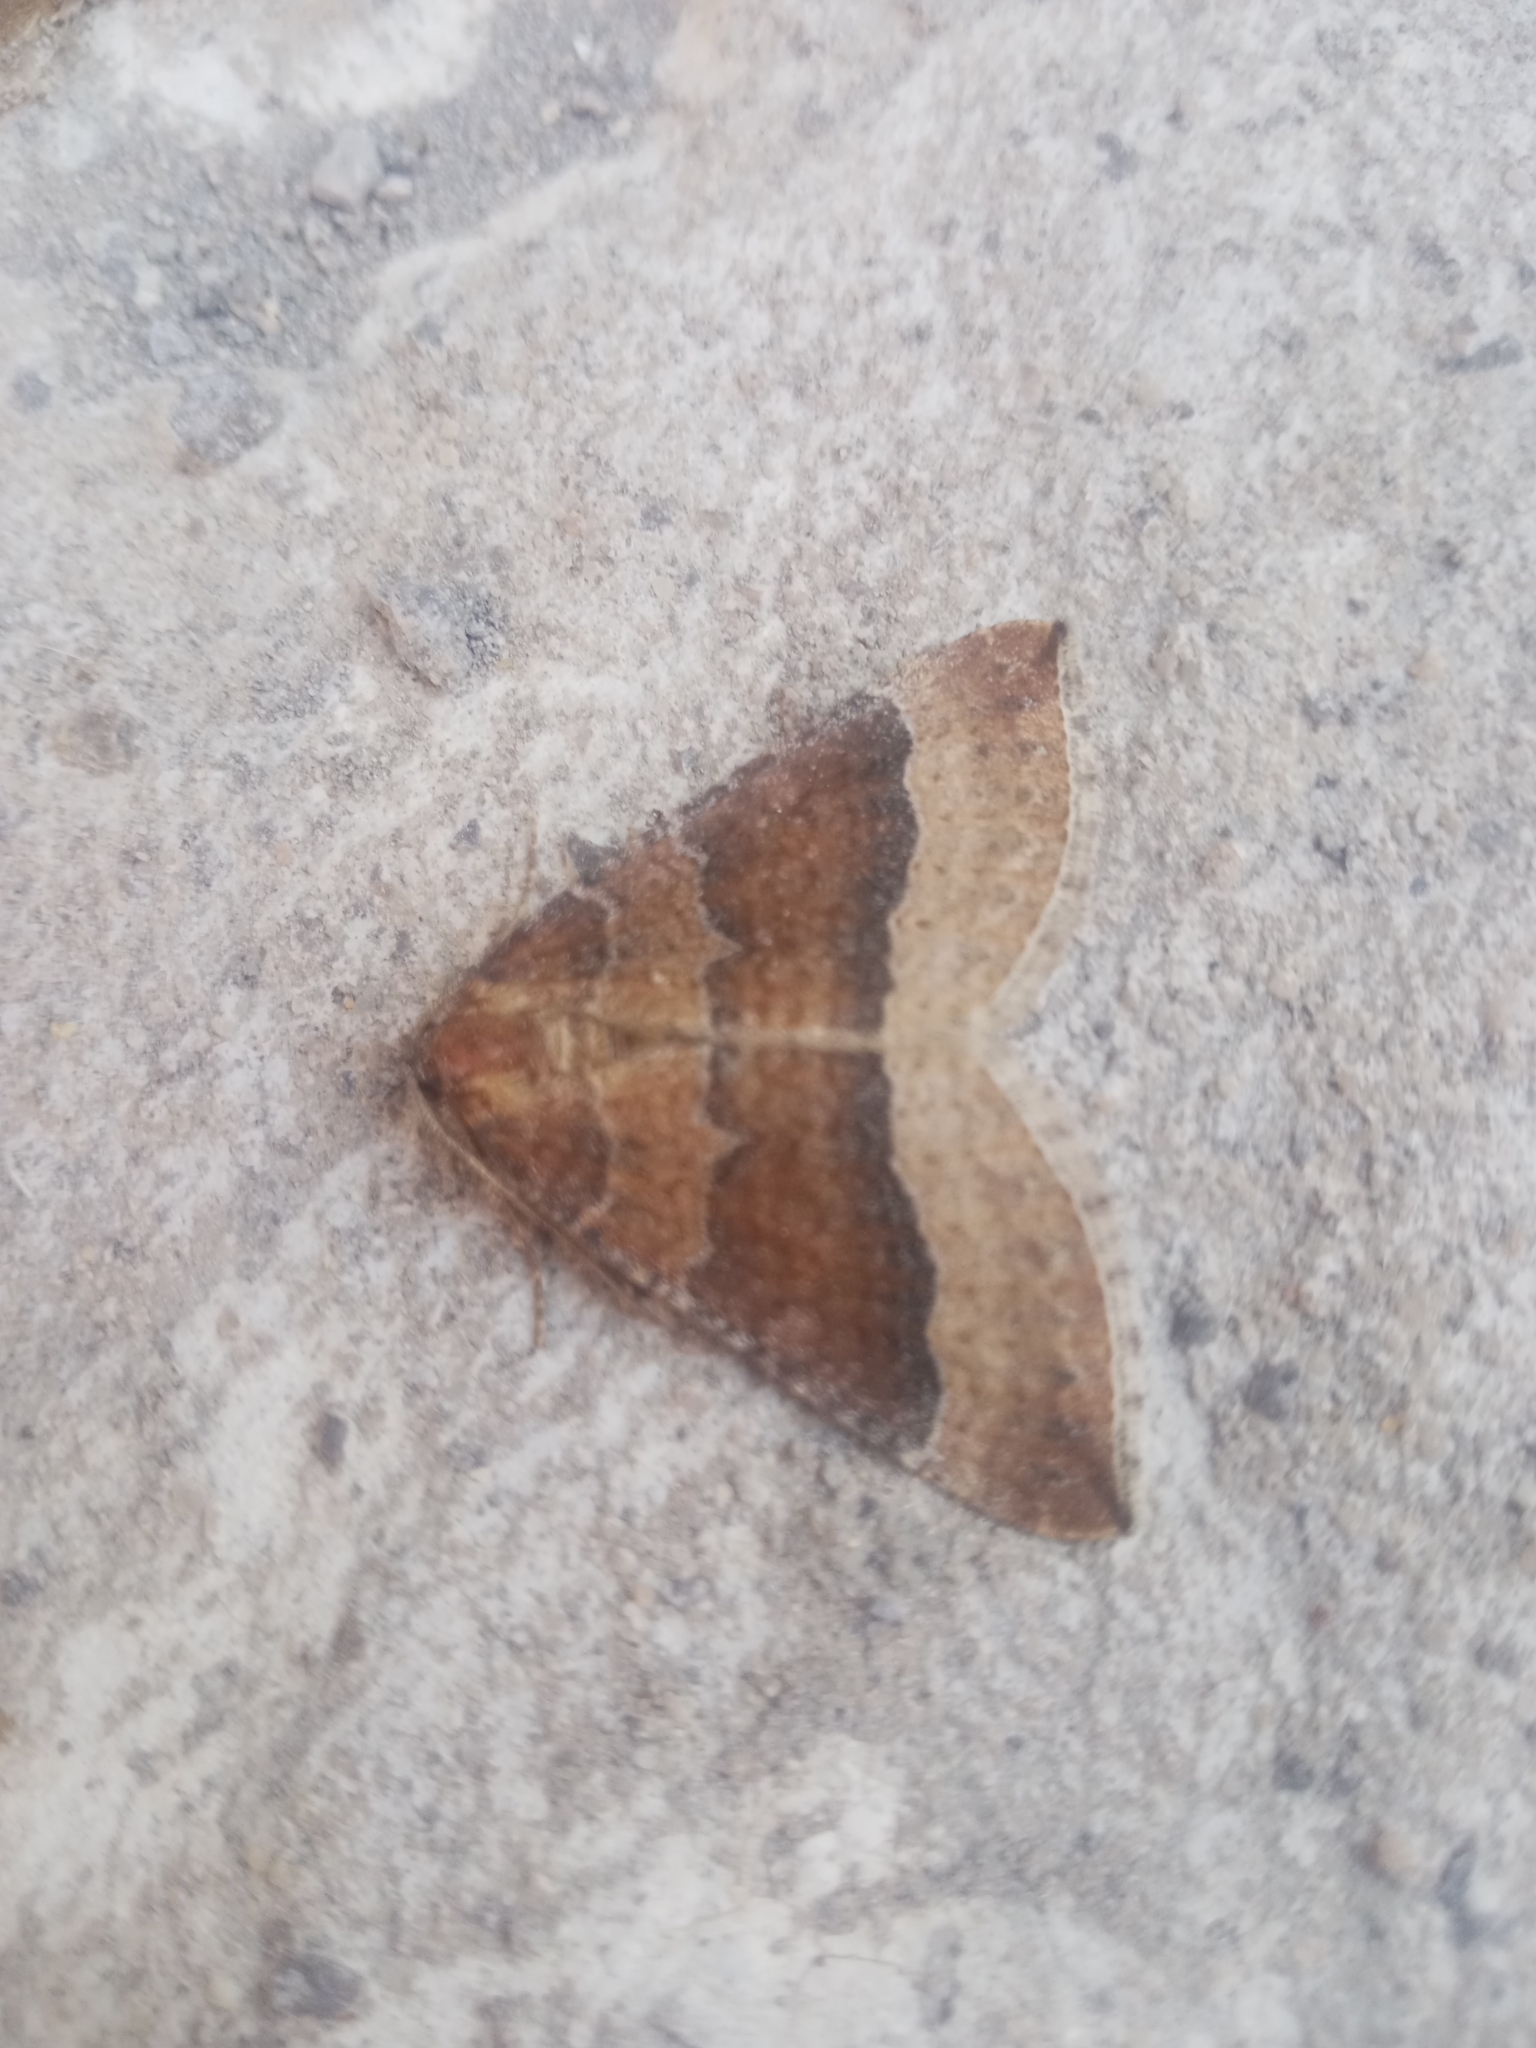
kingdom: Animalia
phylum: Arthropoda
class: Insecta
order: Lepidoptera
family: Geometridae
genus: Larentia
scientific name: Larentia clavaria
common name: Mallow
